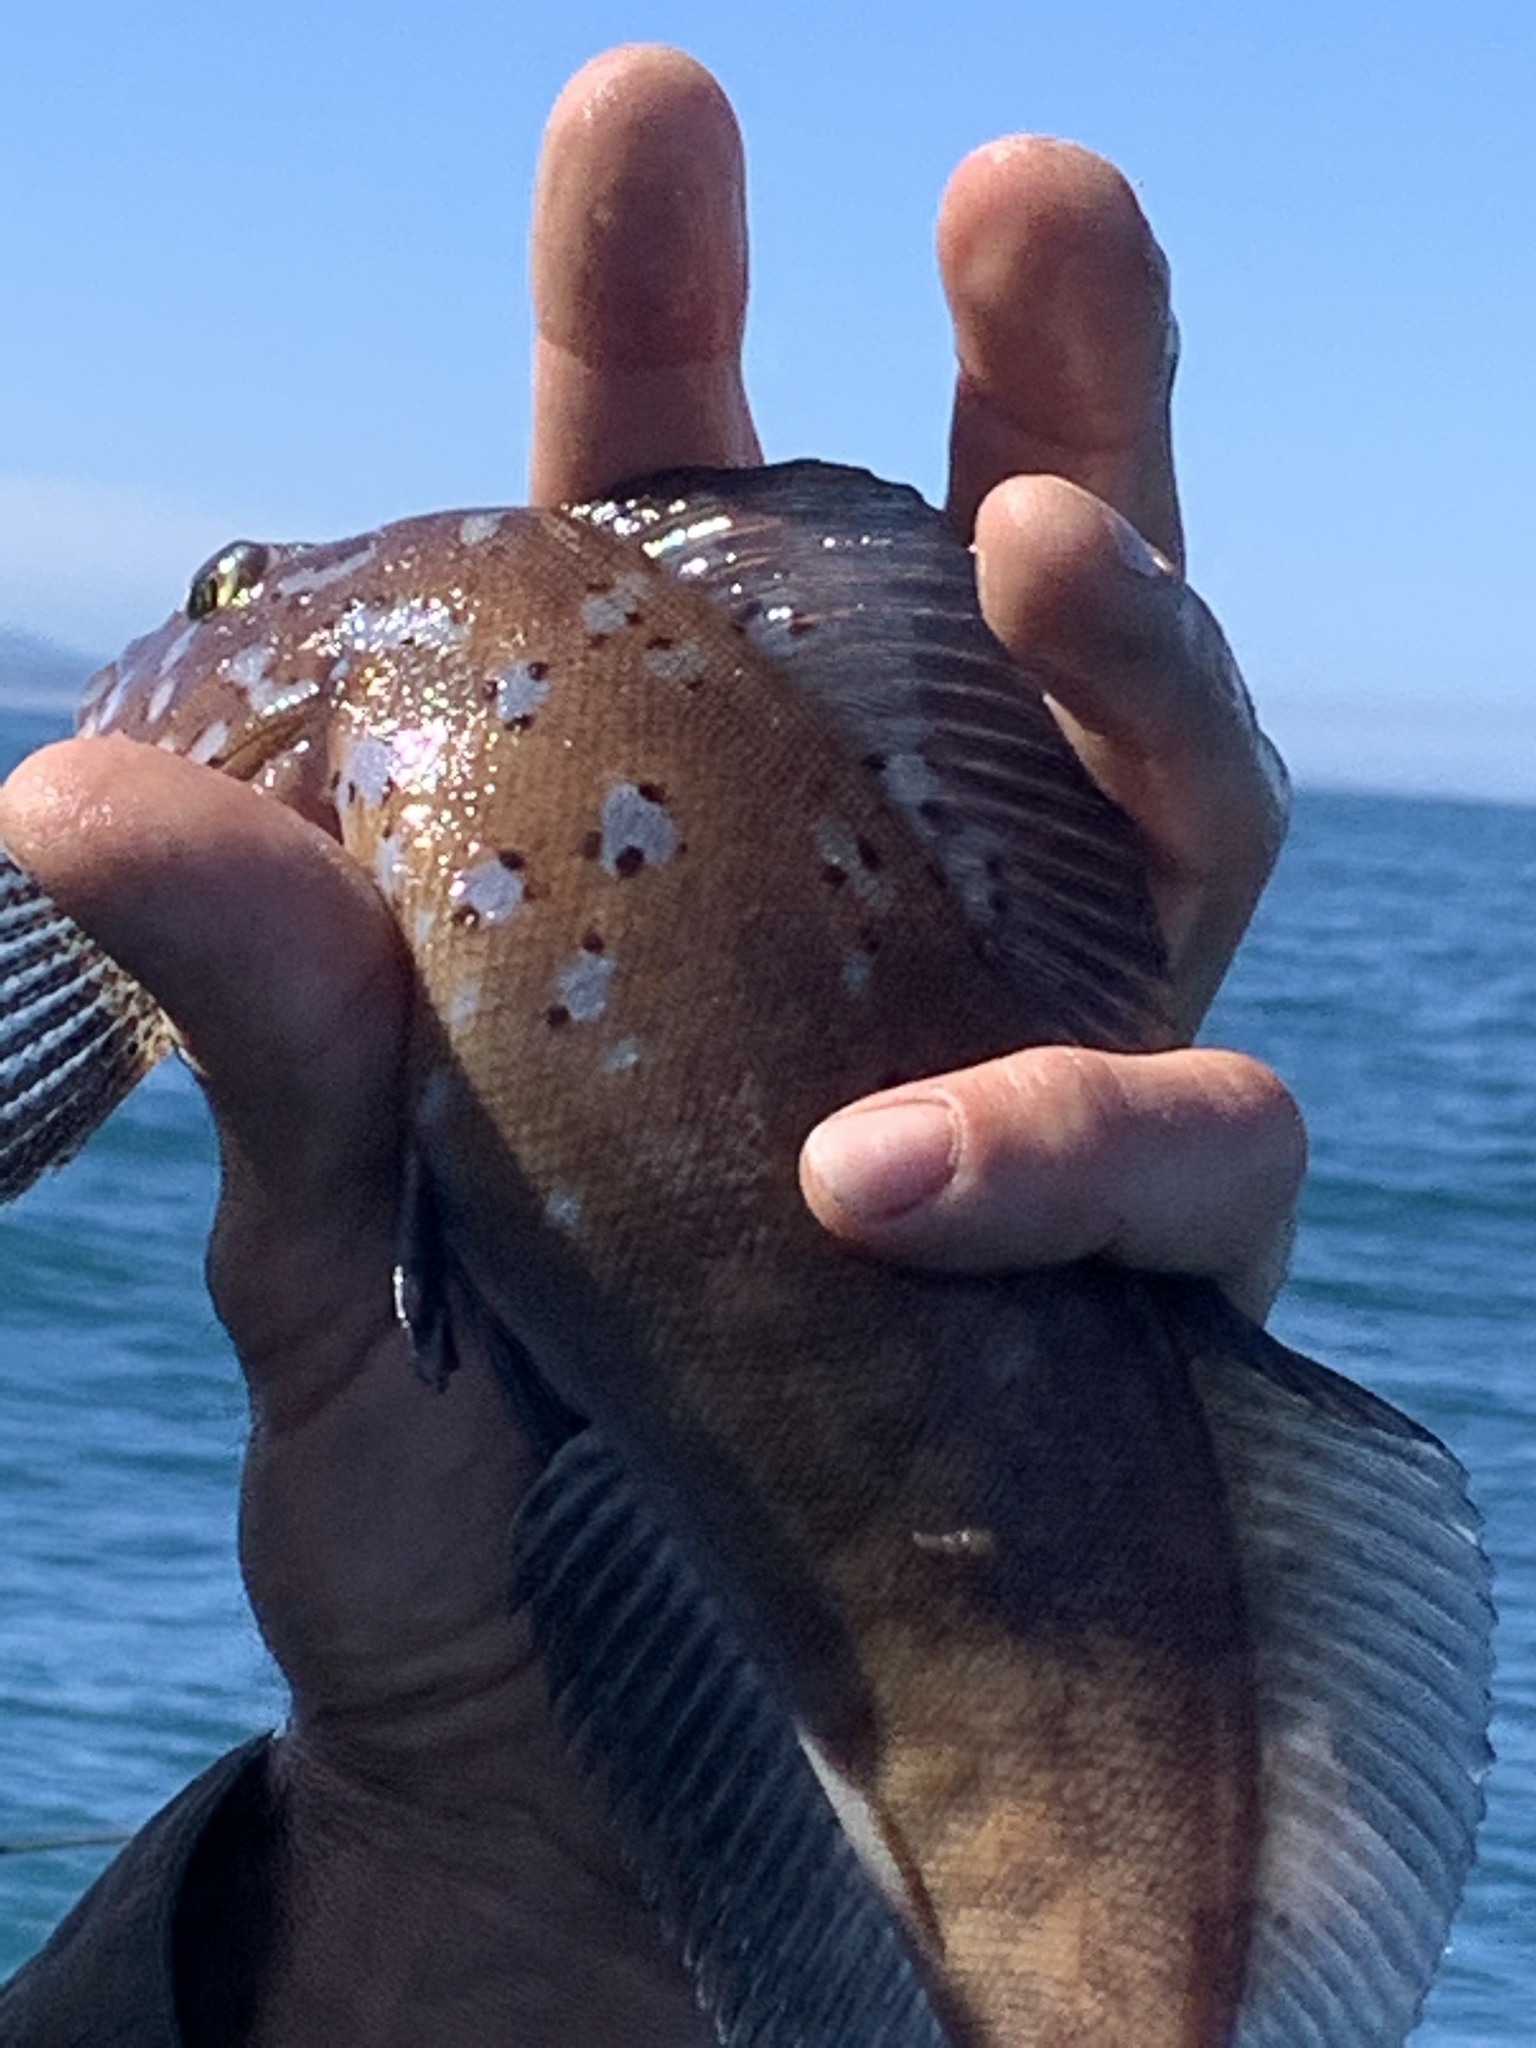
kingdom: Animalia
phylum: Chordata
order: Scorpaeniformes
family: Hexagrammidae
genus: Hexagrammos
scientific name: Hexagrammos decagrammus
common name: Kelp greenling
